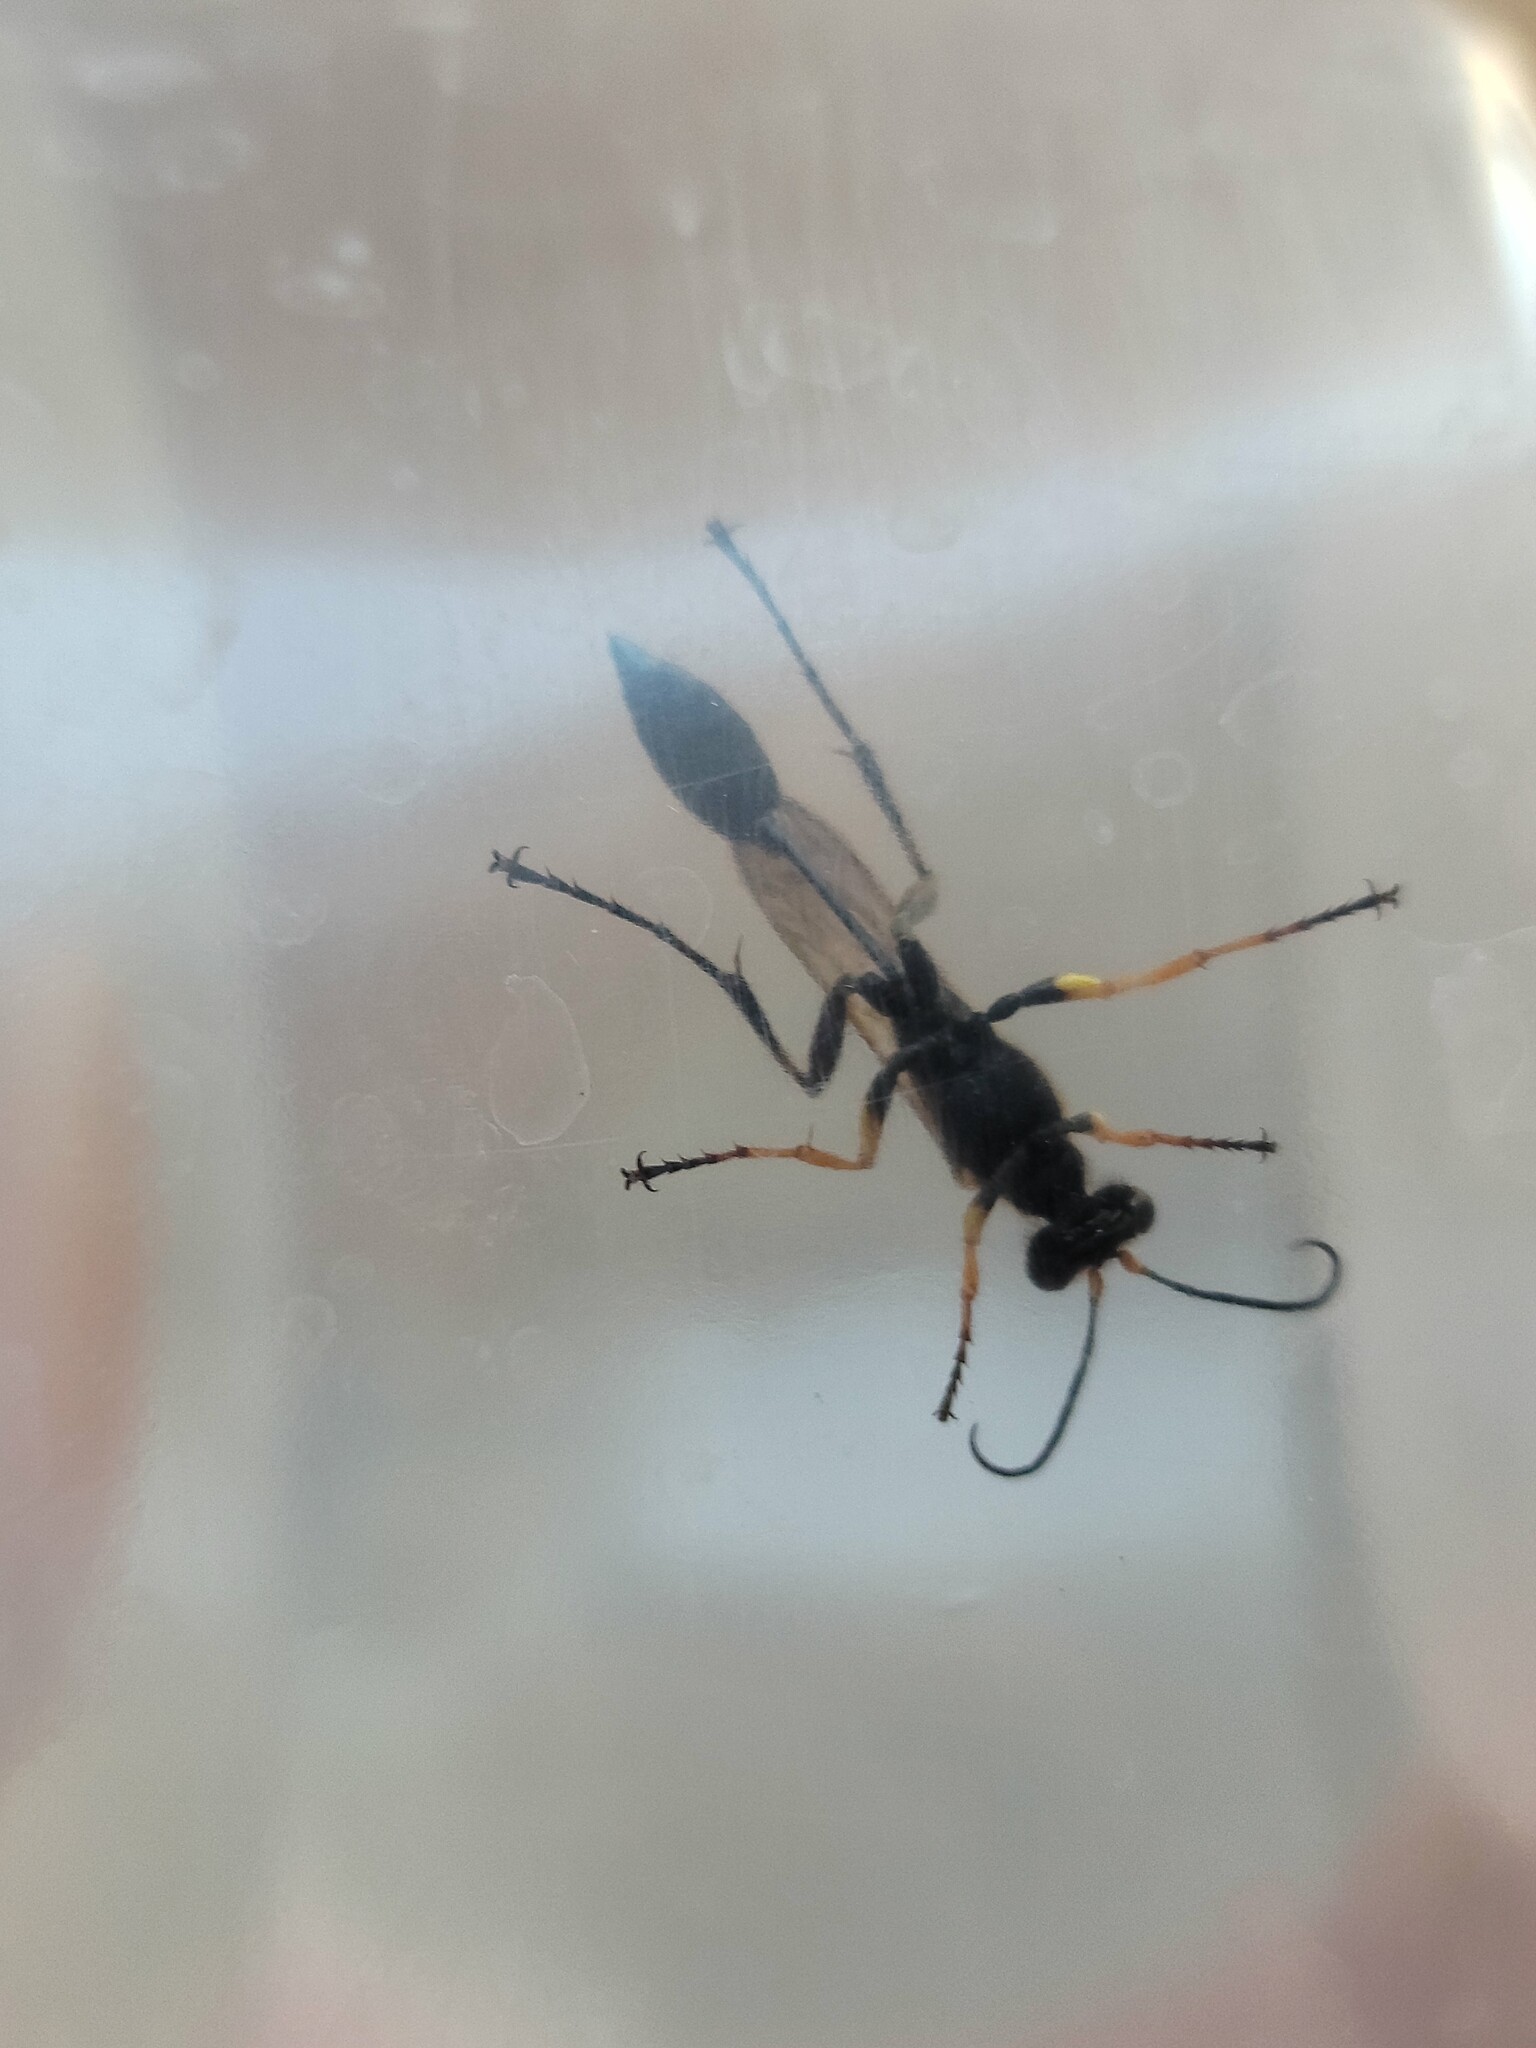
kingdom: Animalia
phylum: Arthropoda
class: Insecta
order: Hymenoptera
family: Sphecidae
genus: Sceliphron
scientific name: Sceliphron assimile
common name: Clayman's mud dauber
